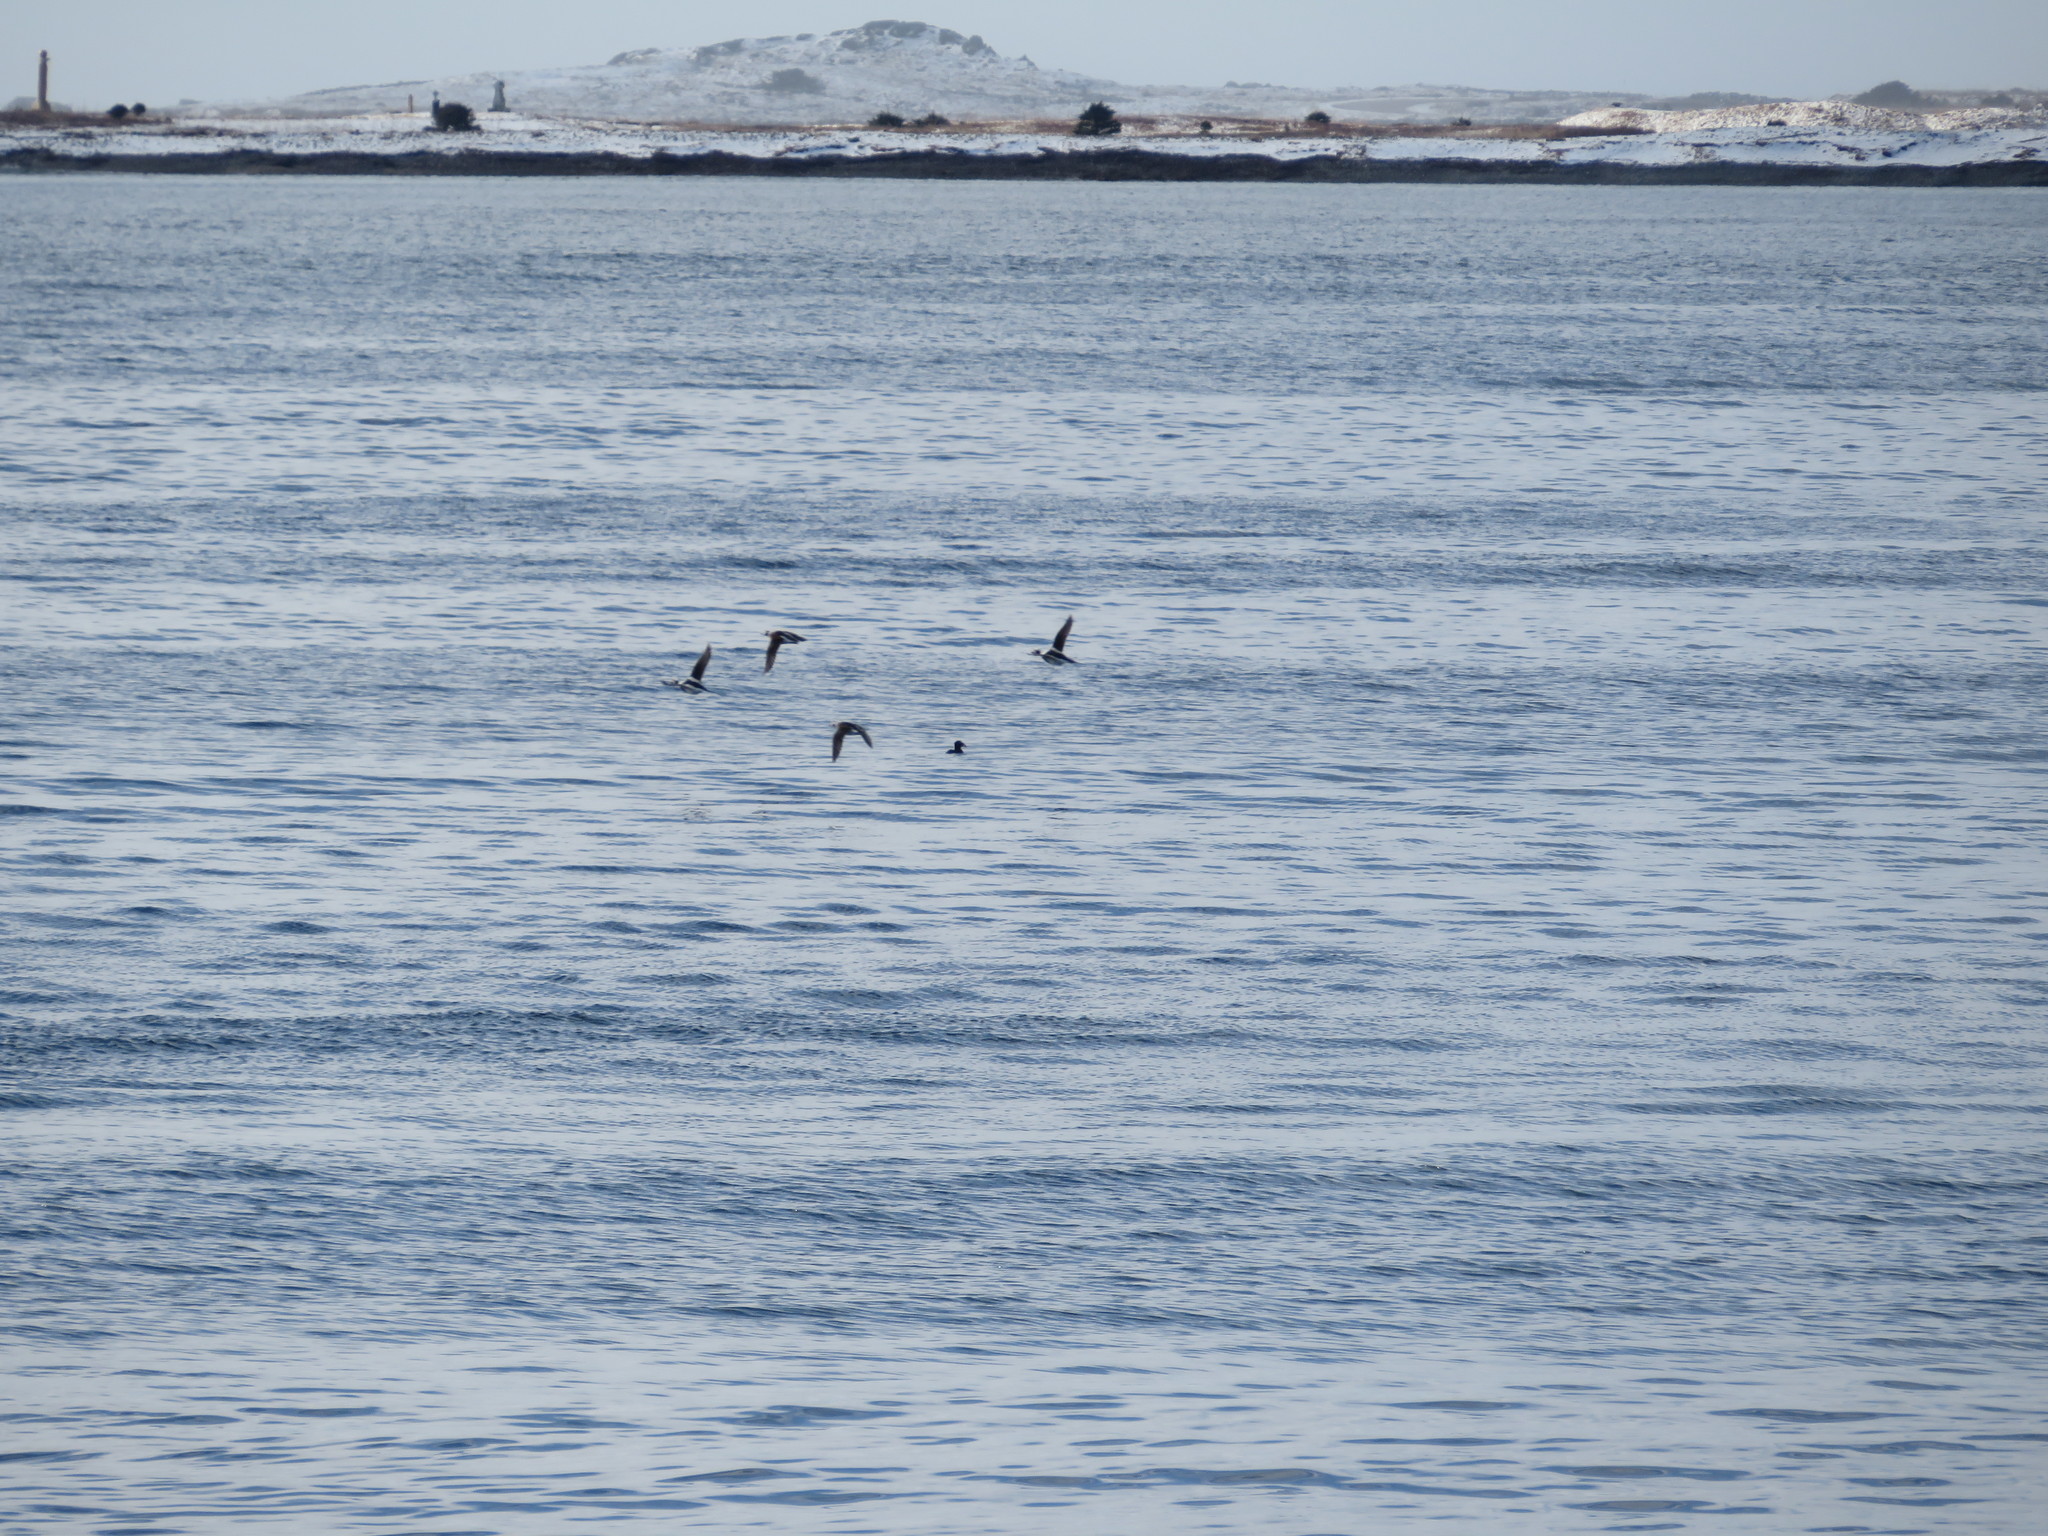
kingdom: Animalia
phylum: Chordata
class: Aves
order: Anseriformes
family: Anatidae
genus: Clangula
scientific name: Clangula hyemalis
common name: Long-tailed duck
